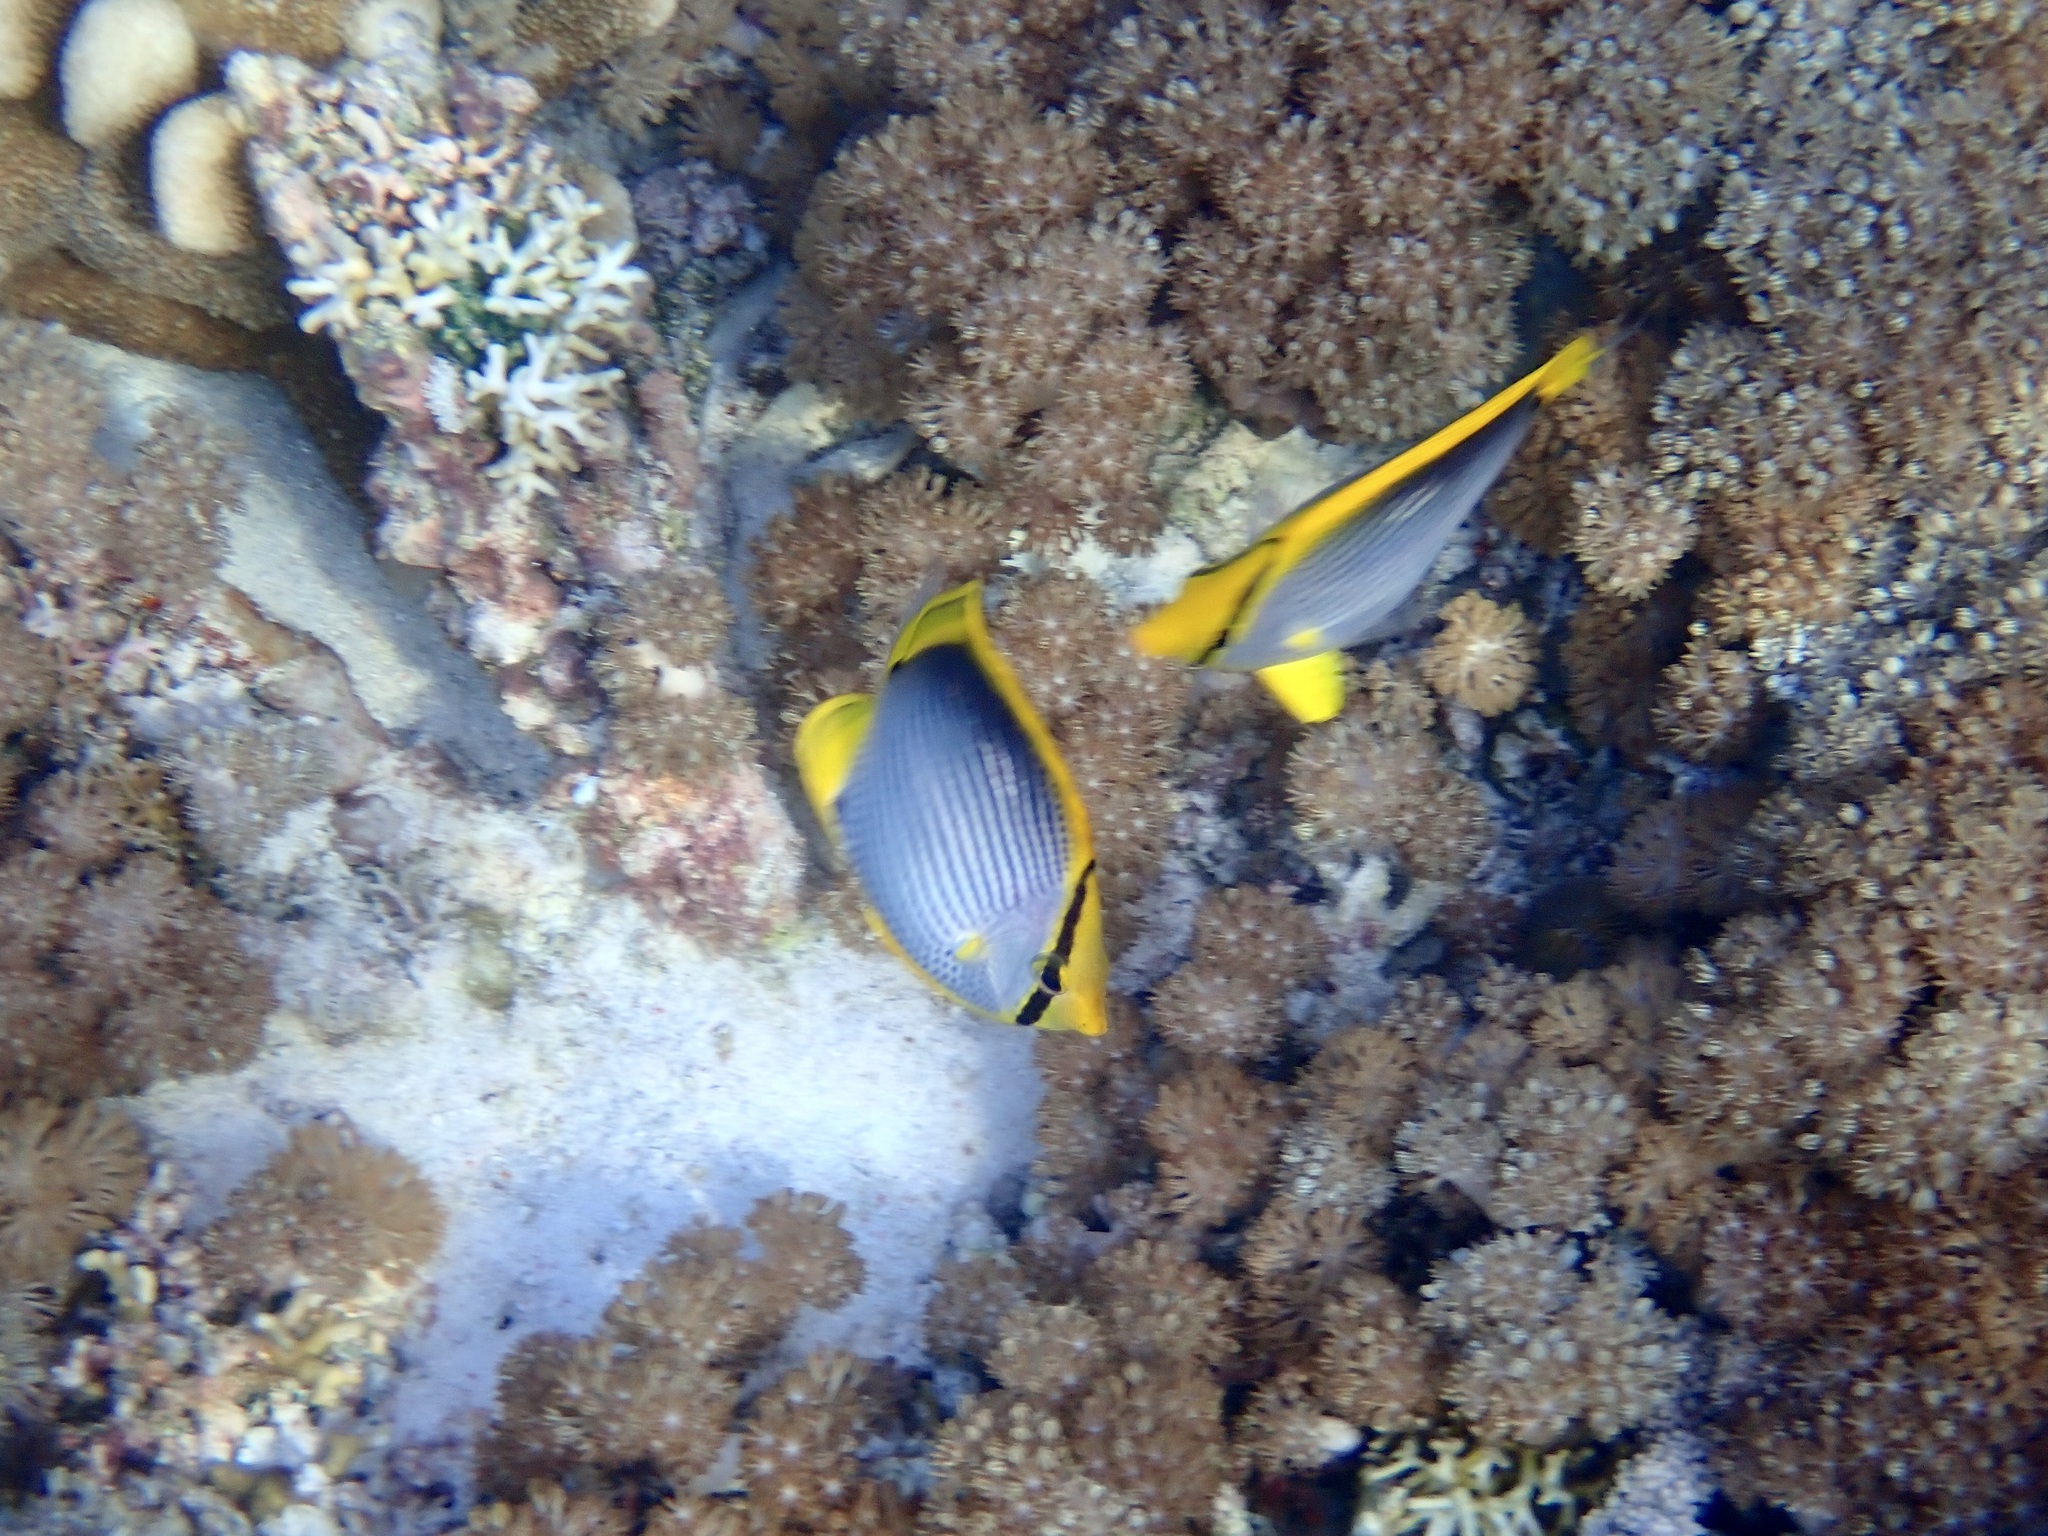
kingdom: Animalia
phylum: Chordata
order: Perciformes
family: Chaetodontidae
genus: Chaetodon
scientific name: Chaetodon melannotus
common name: Blackback butterflyfish
